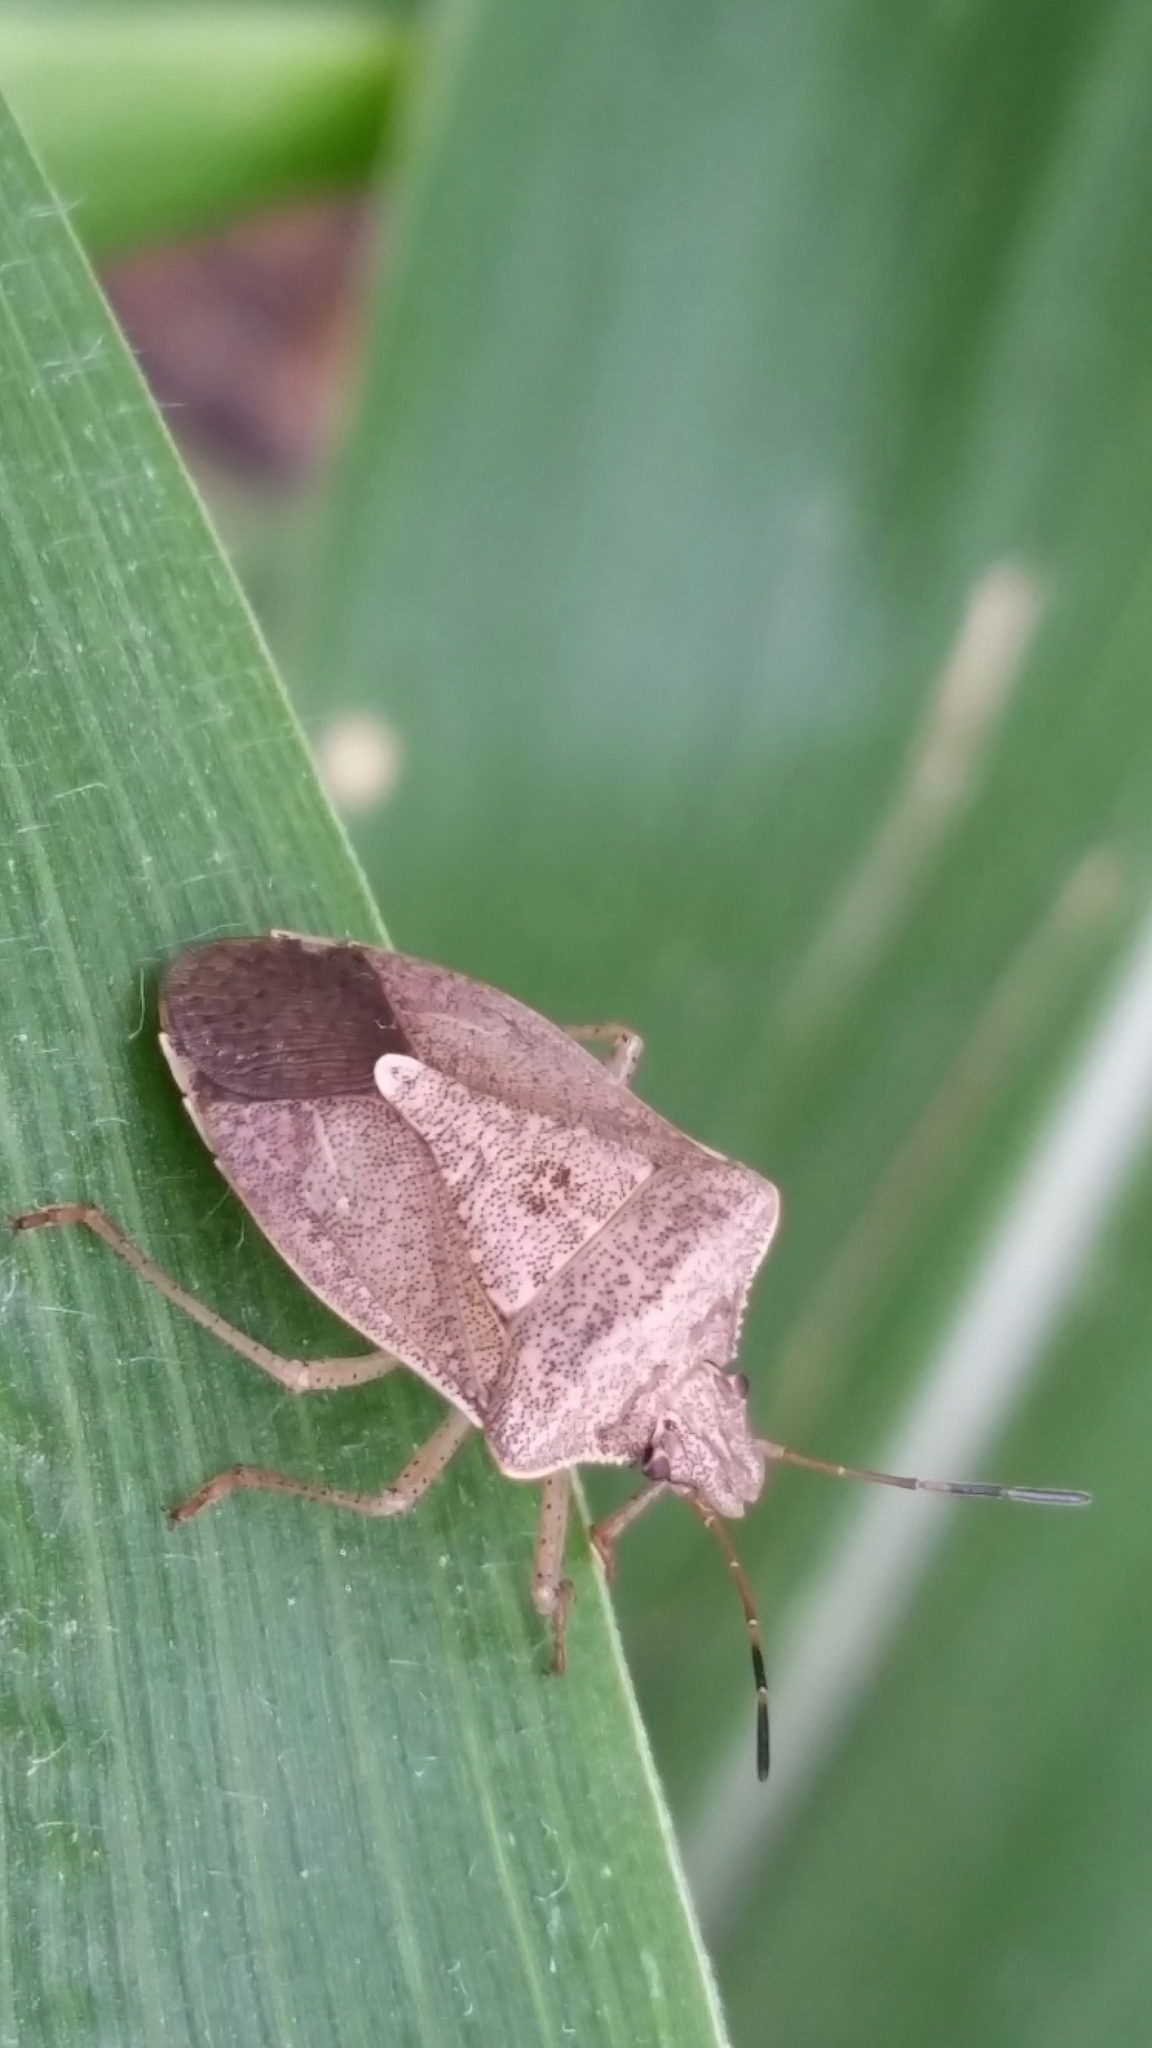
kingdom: Animalia
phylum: Arthropoda
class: Insecta
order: Hemiptera
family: Pentatomidae
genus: Euschistus
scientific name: Euschistus servus
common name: Brown stink bug
